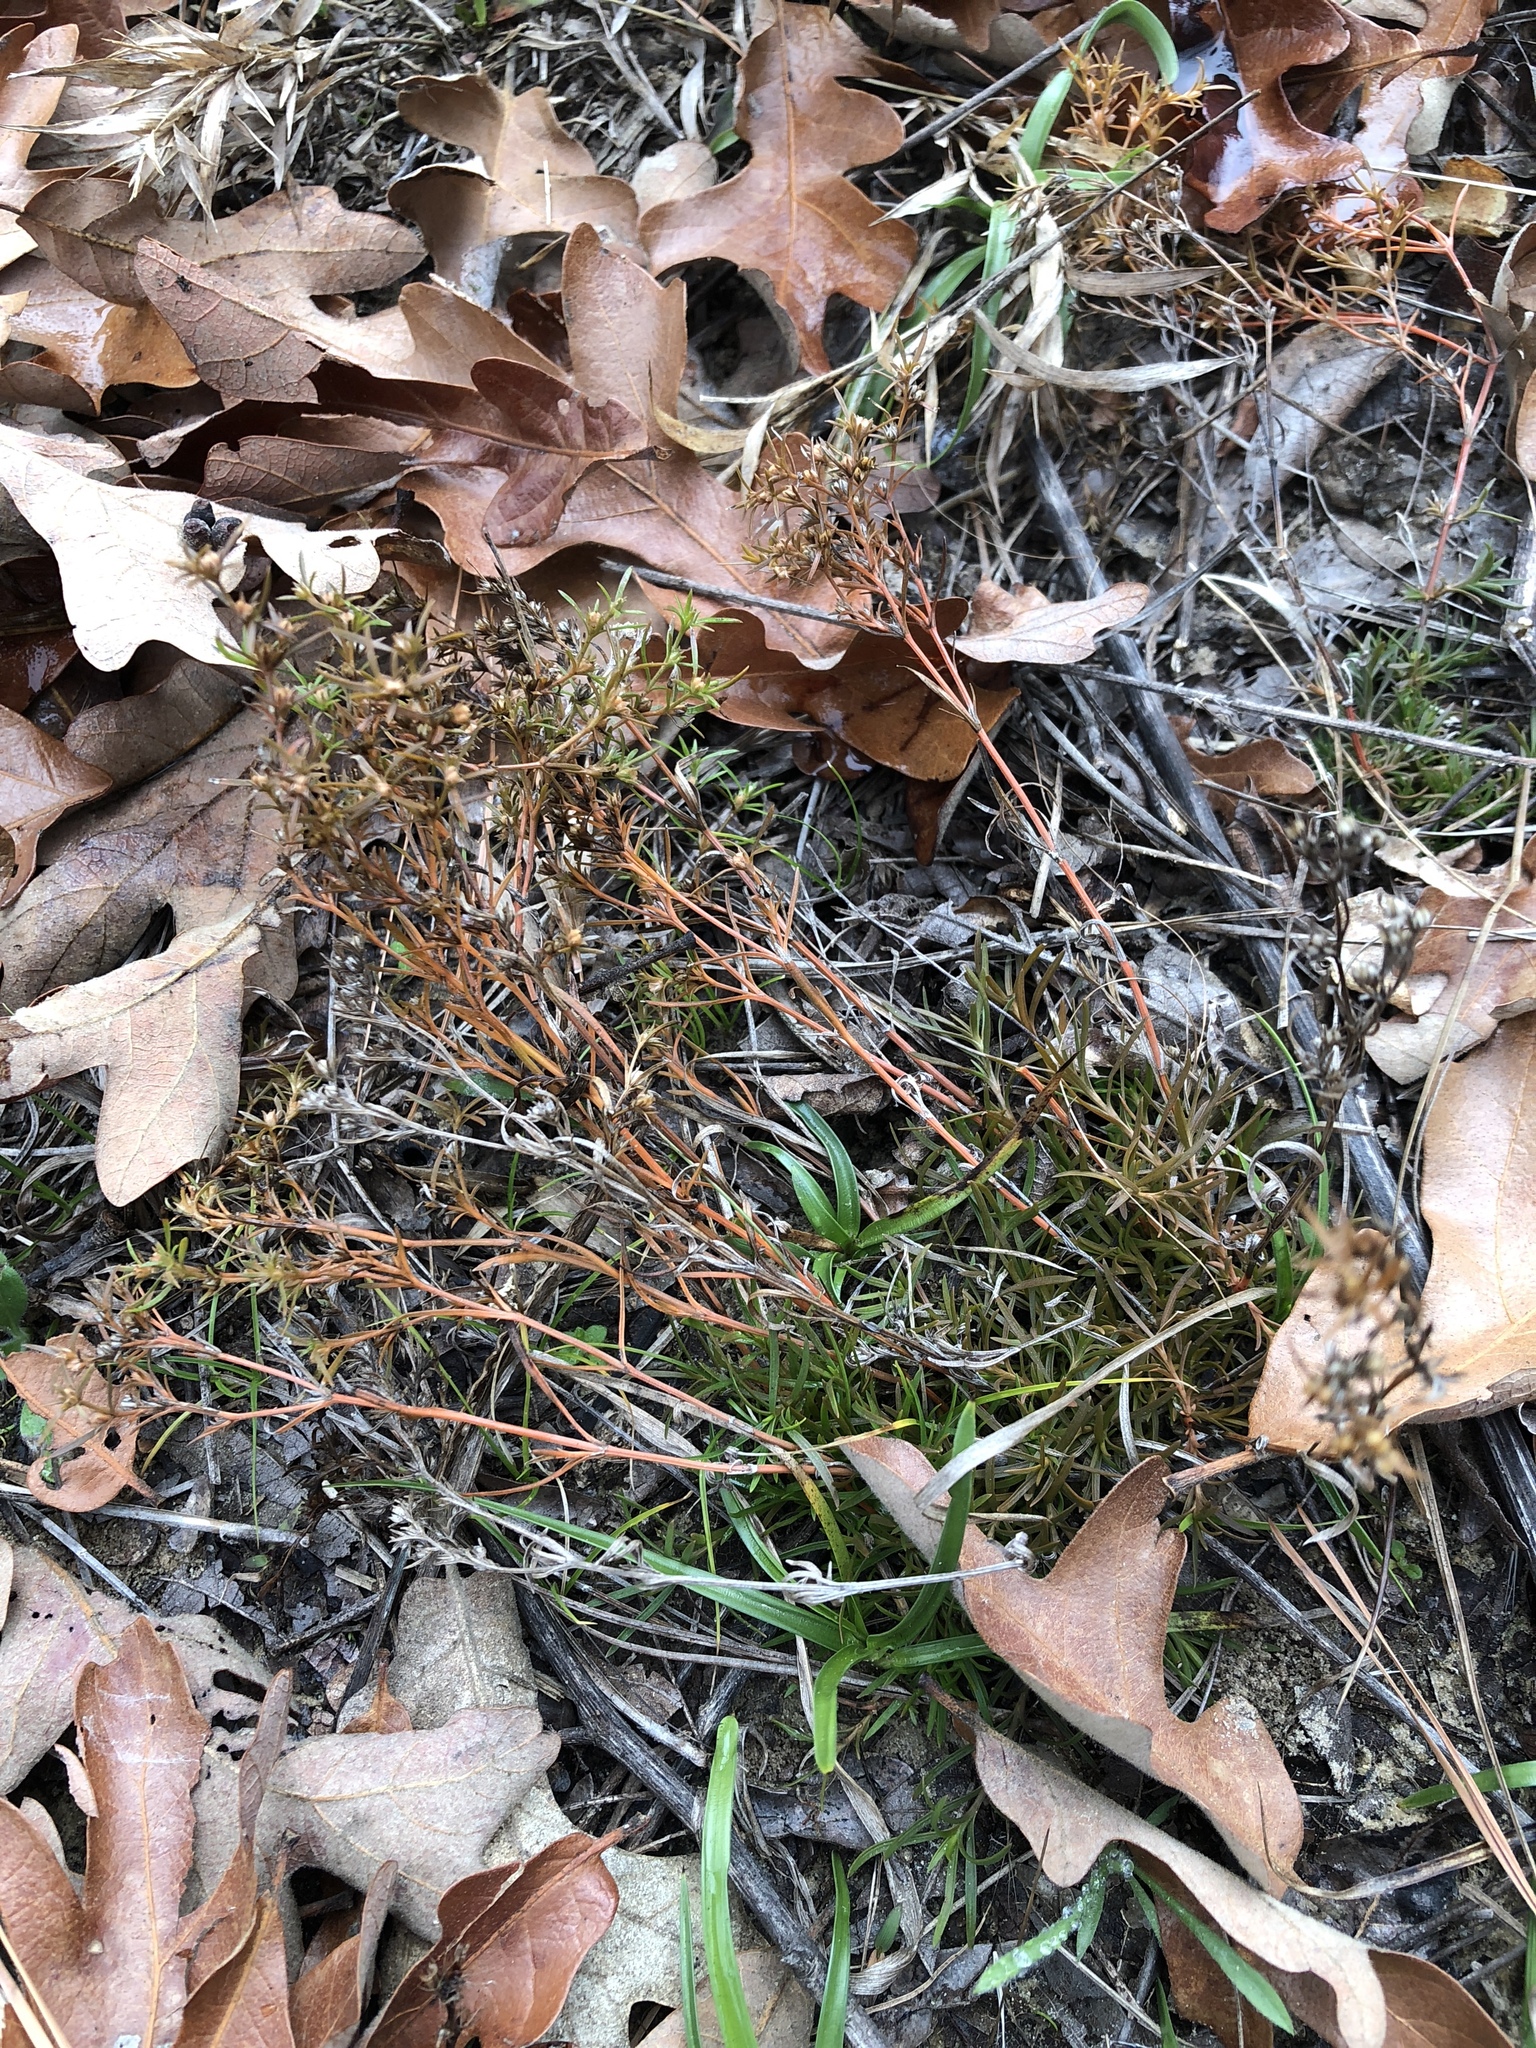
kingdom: Plantae
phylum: Tracheophyta
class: Magnoliopsida
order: Lamiales
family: Tetrachondraceae
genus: Polypremum
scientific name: Polypremum procumbens
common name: Juniper-leaf
